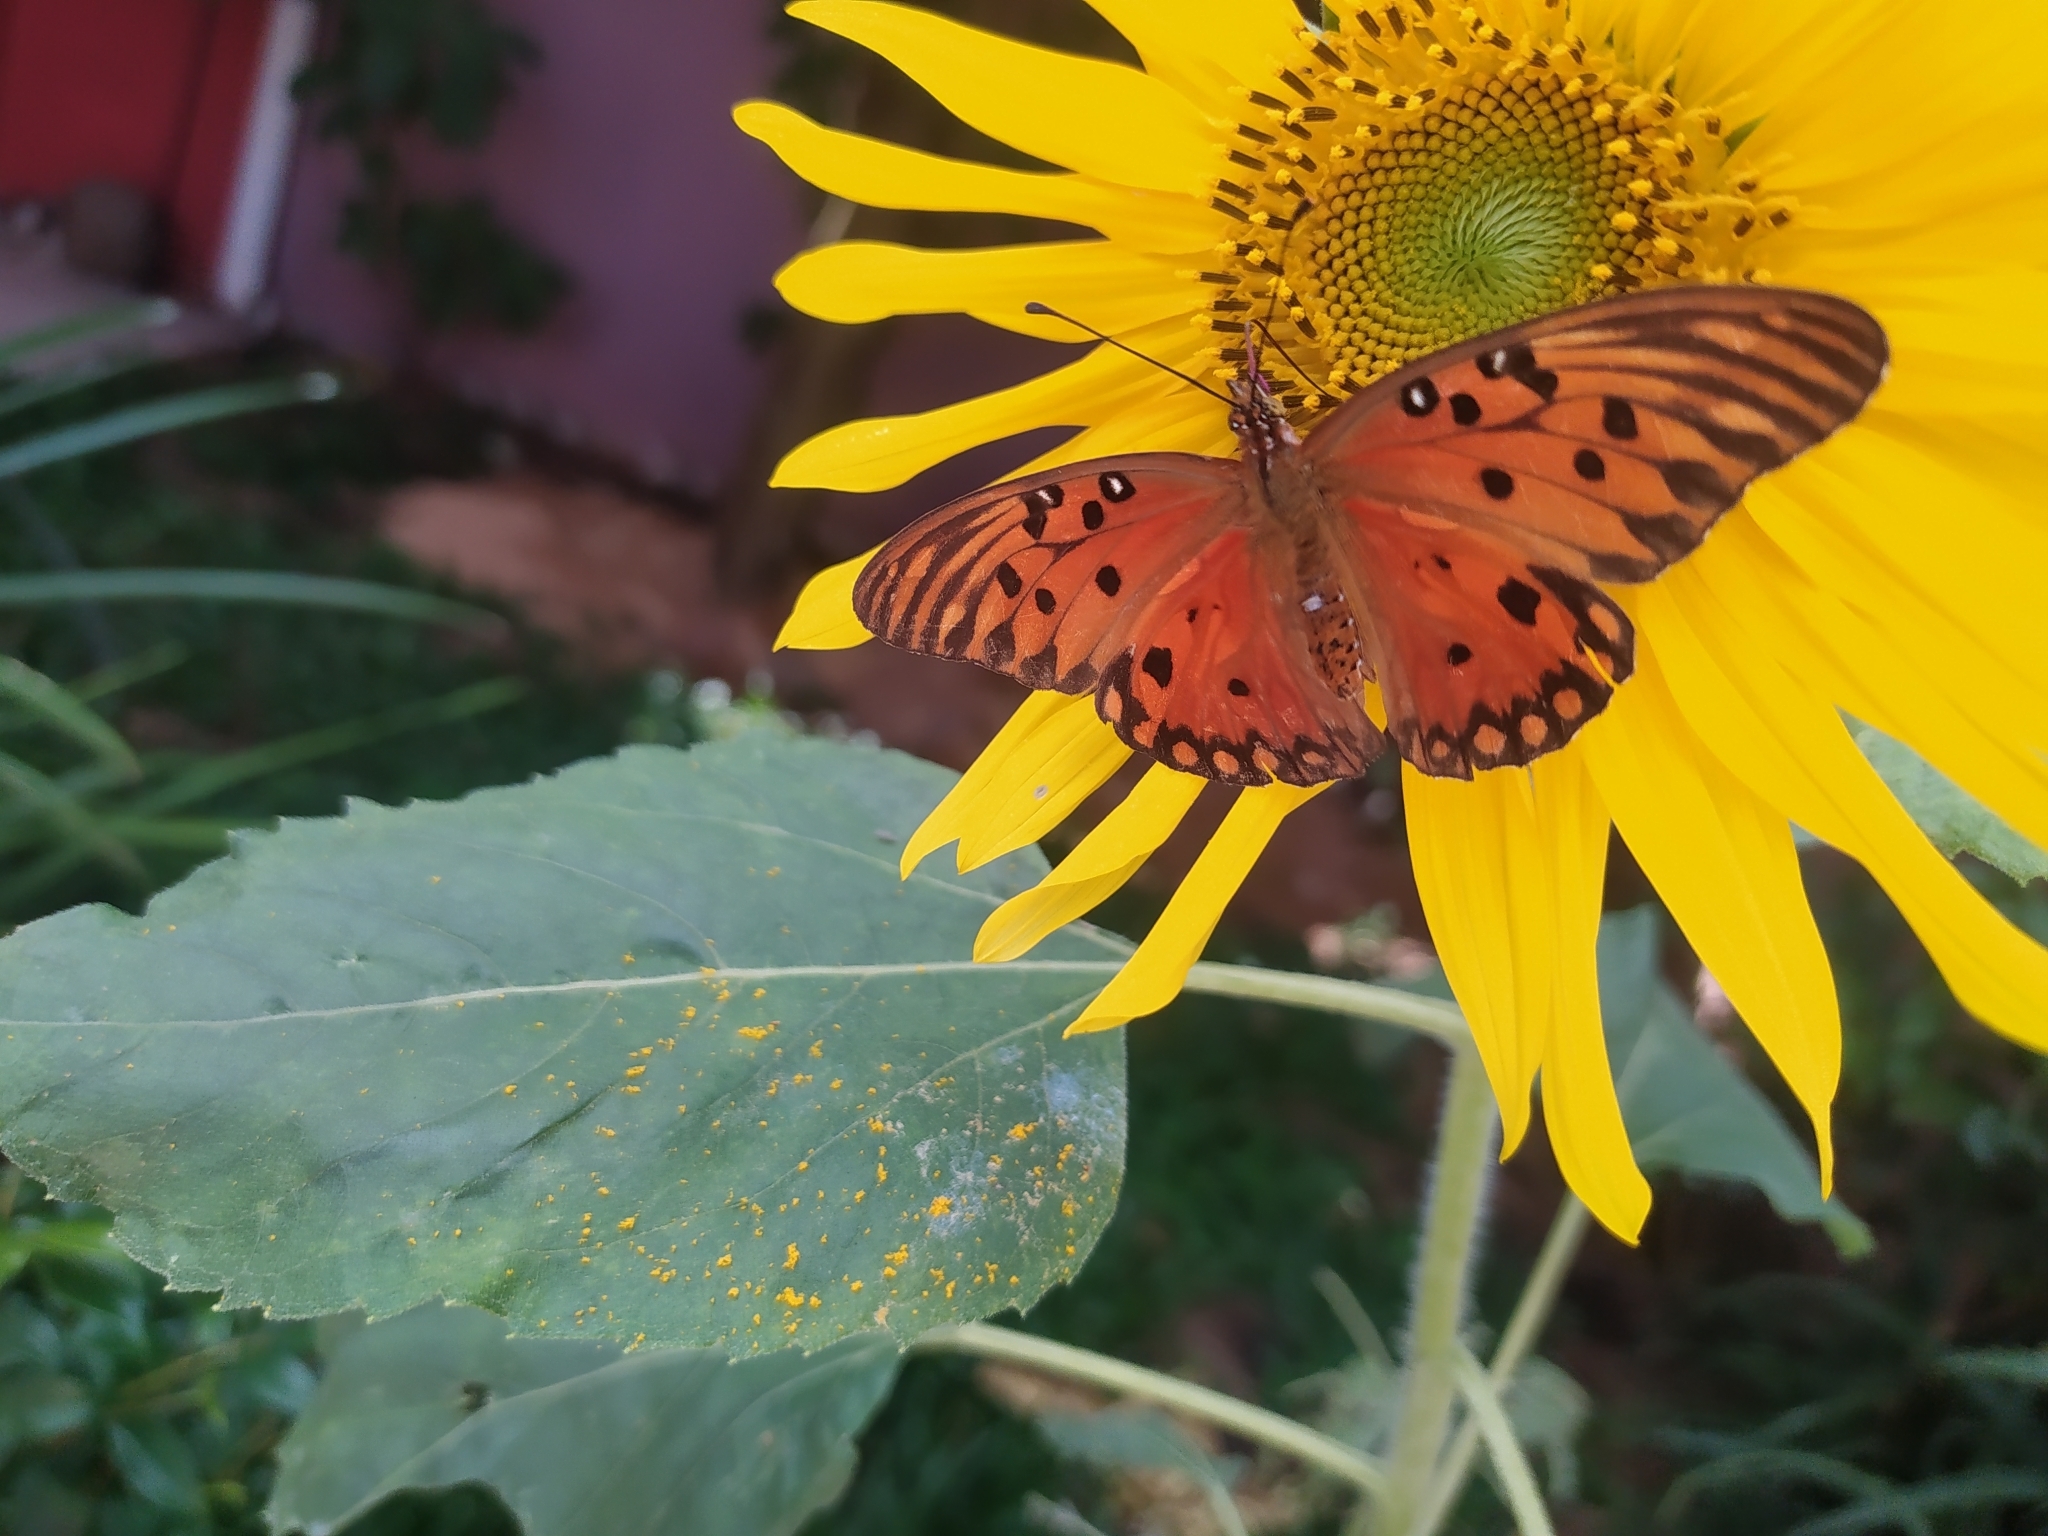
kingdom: Animalia
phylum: Arthropoda
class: Insecta
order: Lepidoptera
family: Nymphalidae
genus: Dione
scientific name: Dione vanillae
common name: Gulf fritillary
